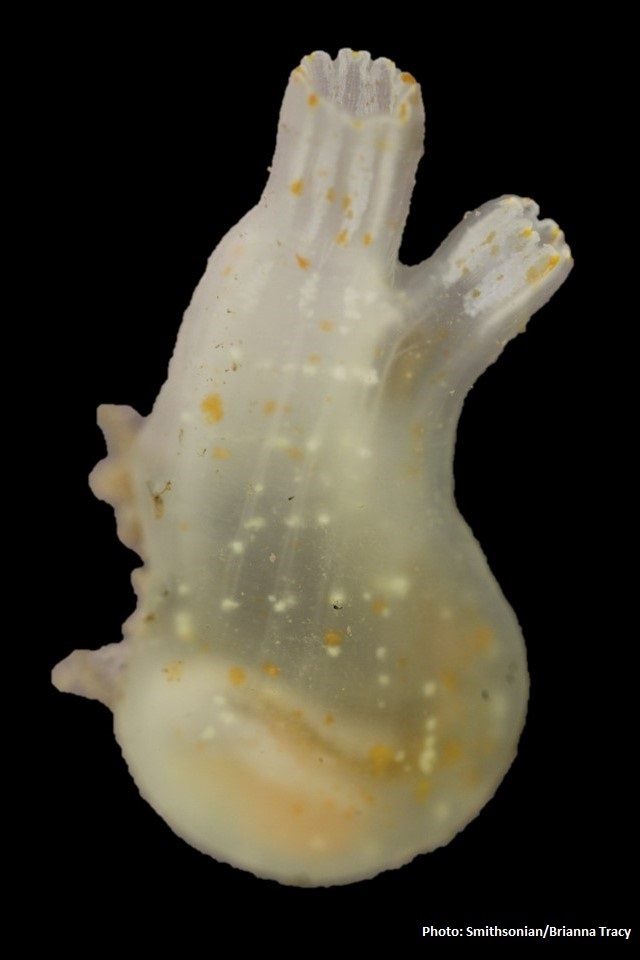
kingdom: Animalia
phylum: Chordata
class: Ascidiacea
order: Phlebobranchia
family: Cionidae
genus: Ciona
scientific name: Ciona savignyi
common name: Tunicate
